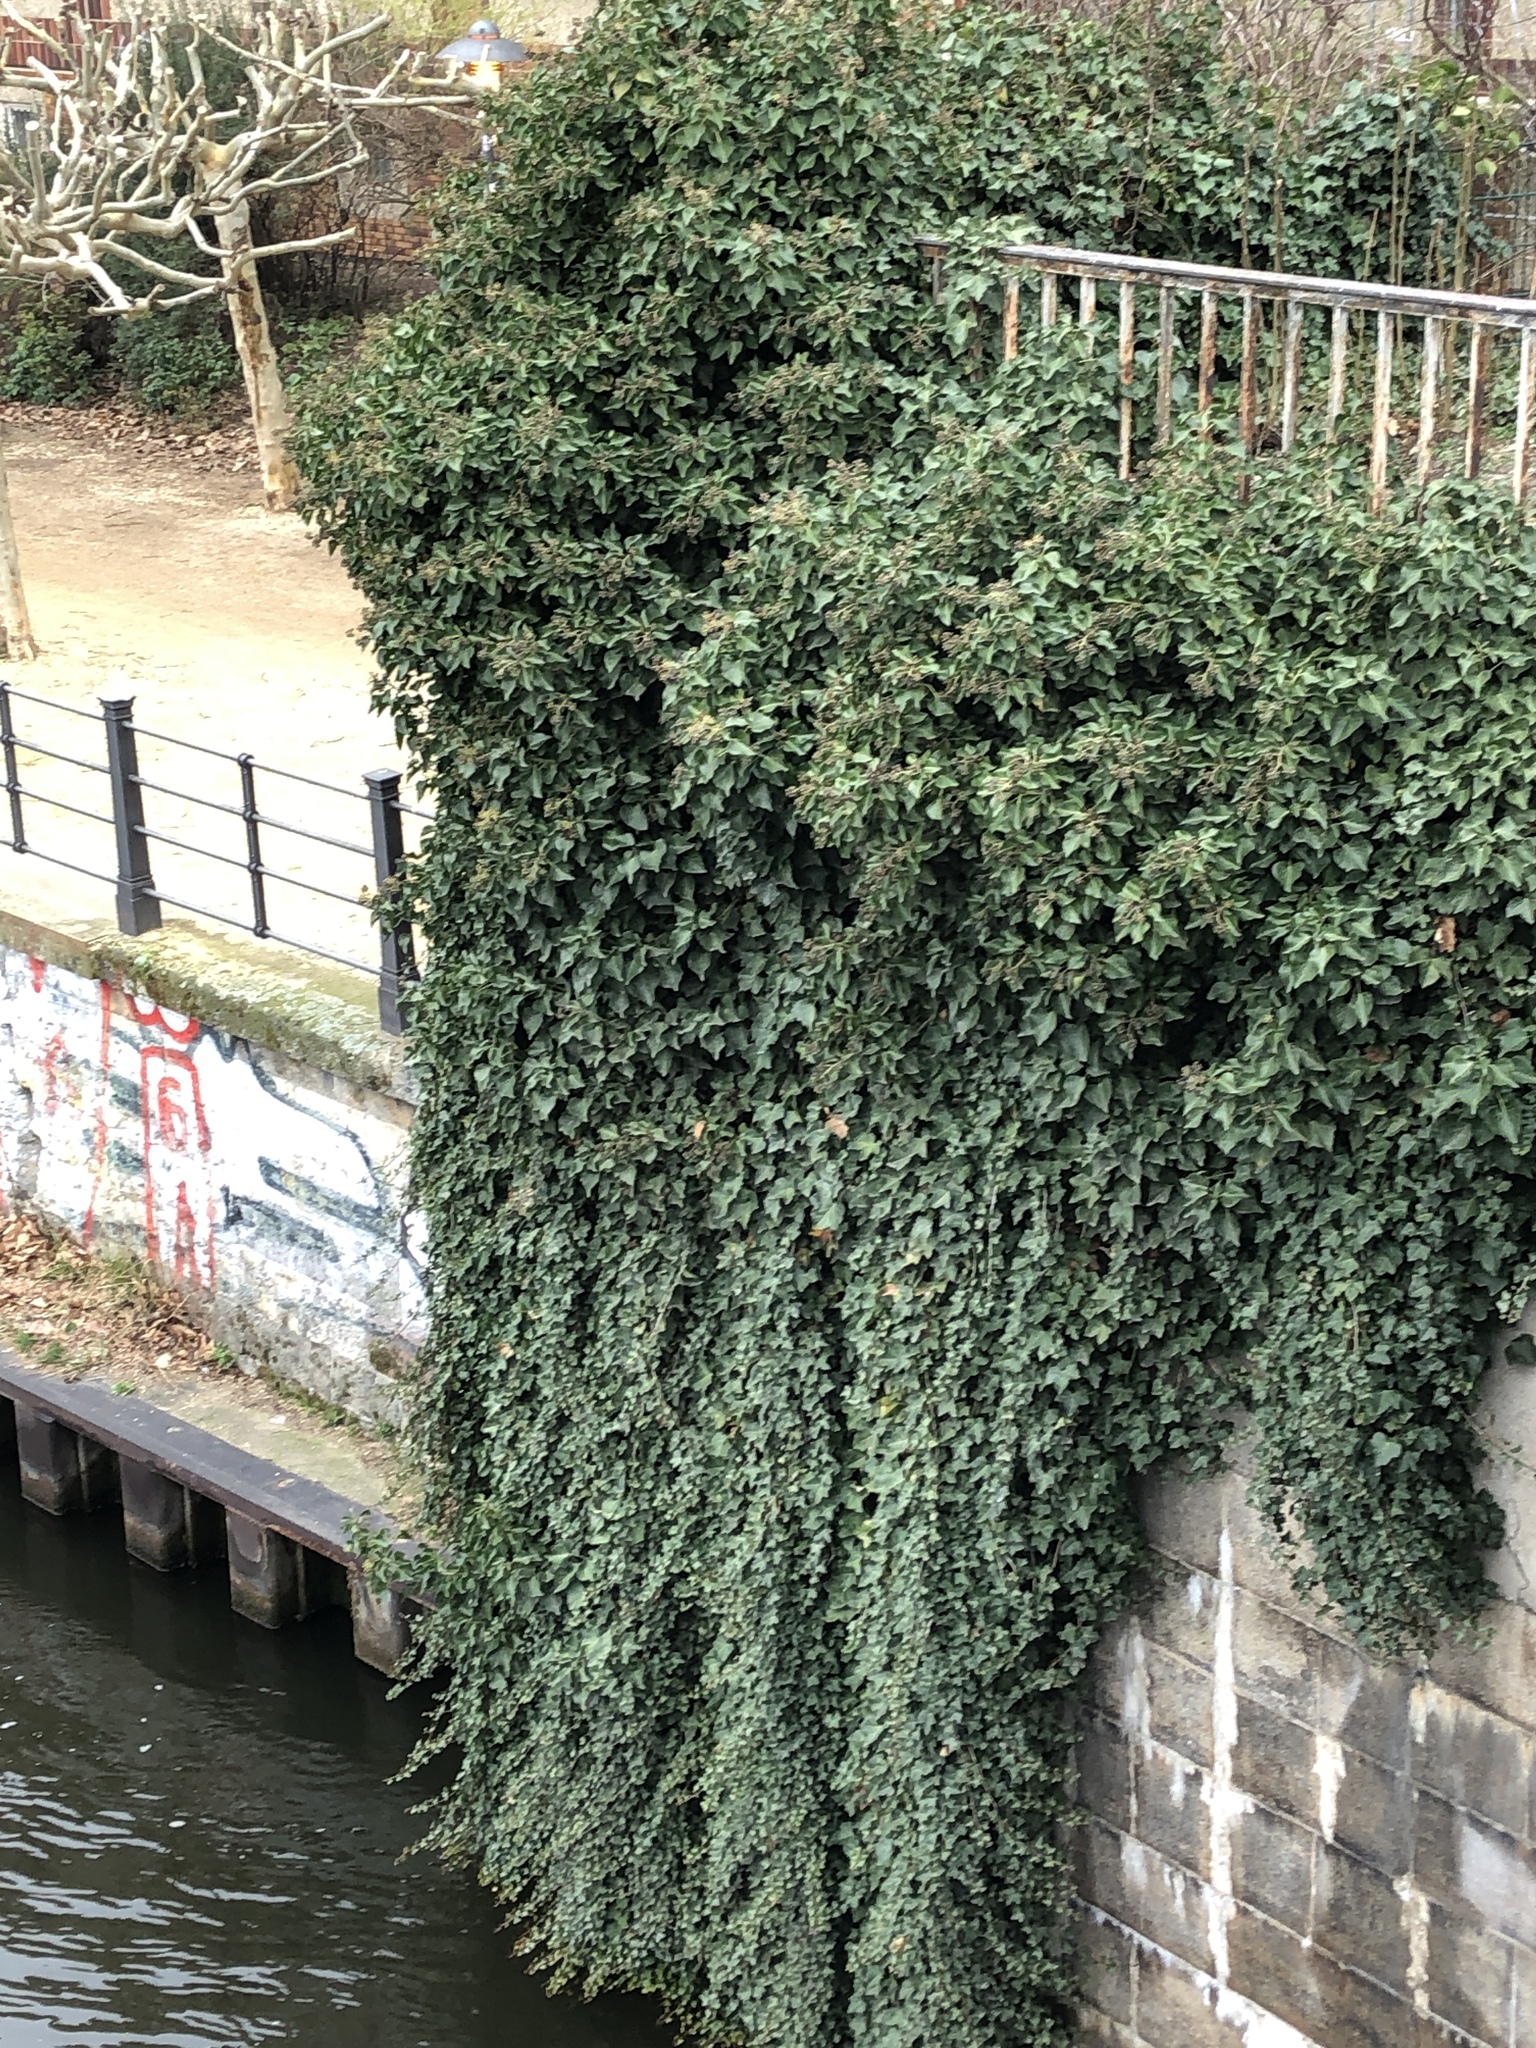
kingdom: Plantae
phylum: Tracheophyta
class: Magnoliopsida
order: Apiales
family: Araliaceae
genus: Hedera
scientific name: Hedera helix
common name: Ivy
